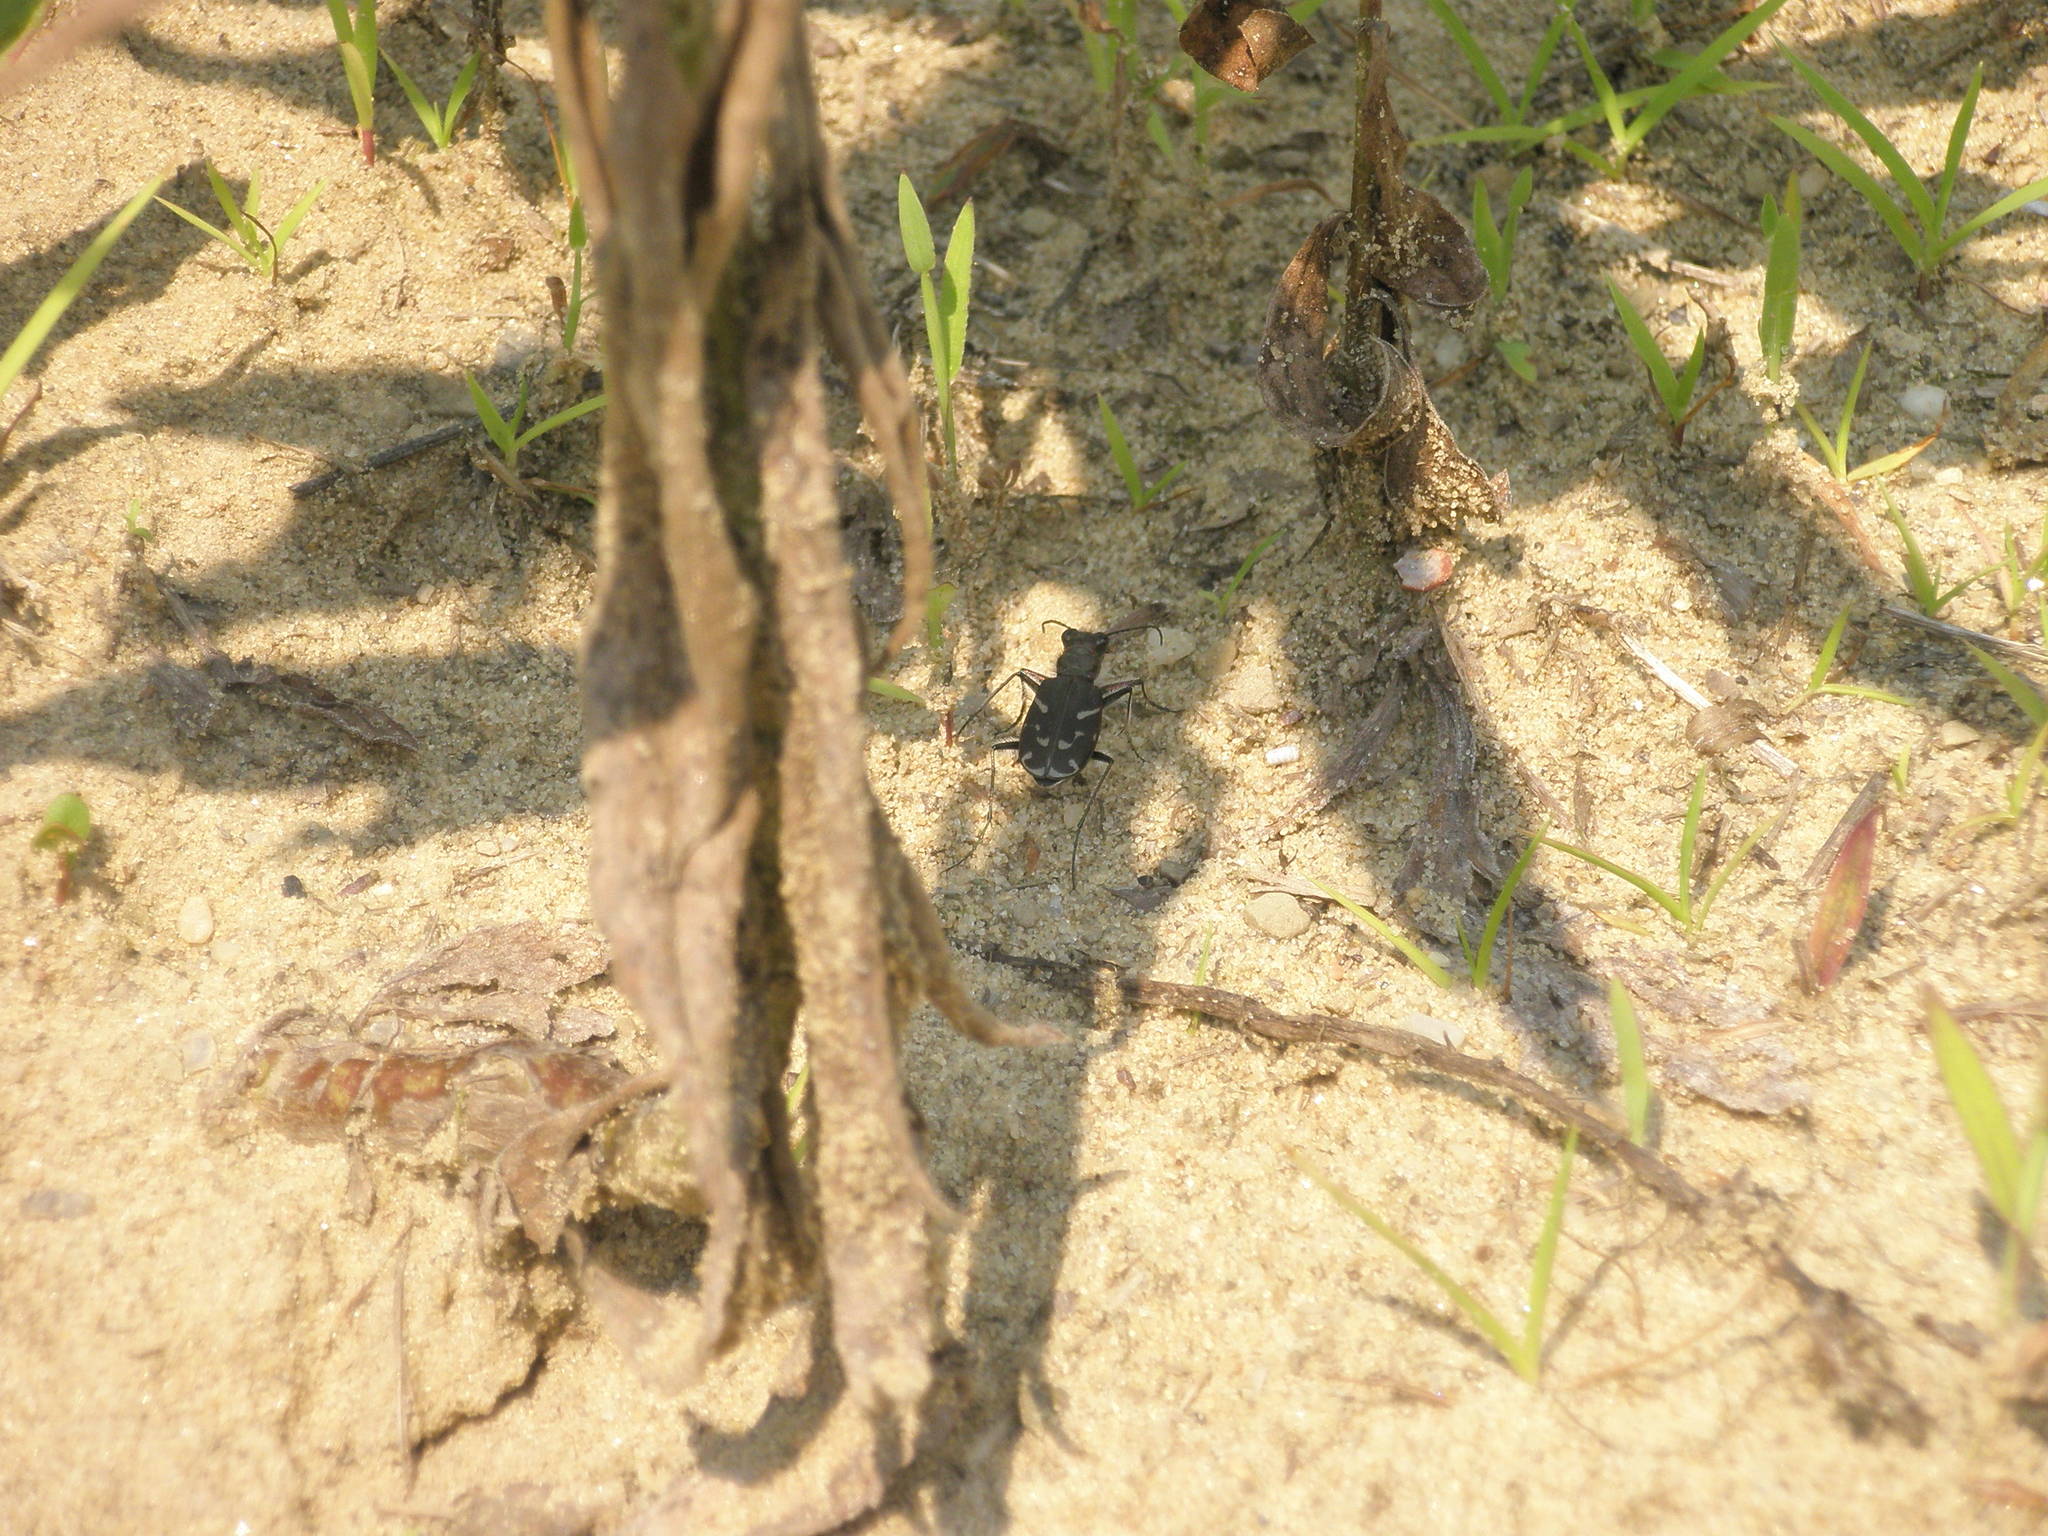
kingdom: Animalia
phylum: Arthropoda
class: Insecta
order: Coleoptera
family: Carabidae
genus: Cicindela
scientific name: Cicindela tranquebarica
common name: Oblique-lined tiger beetle
